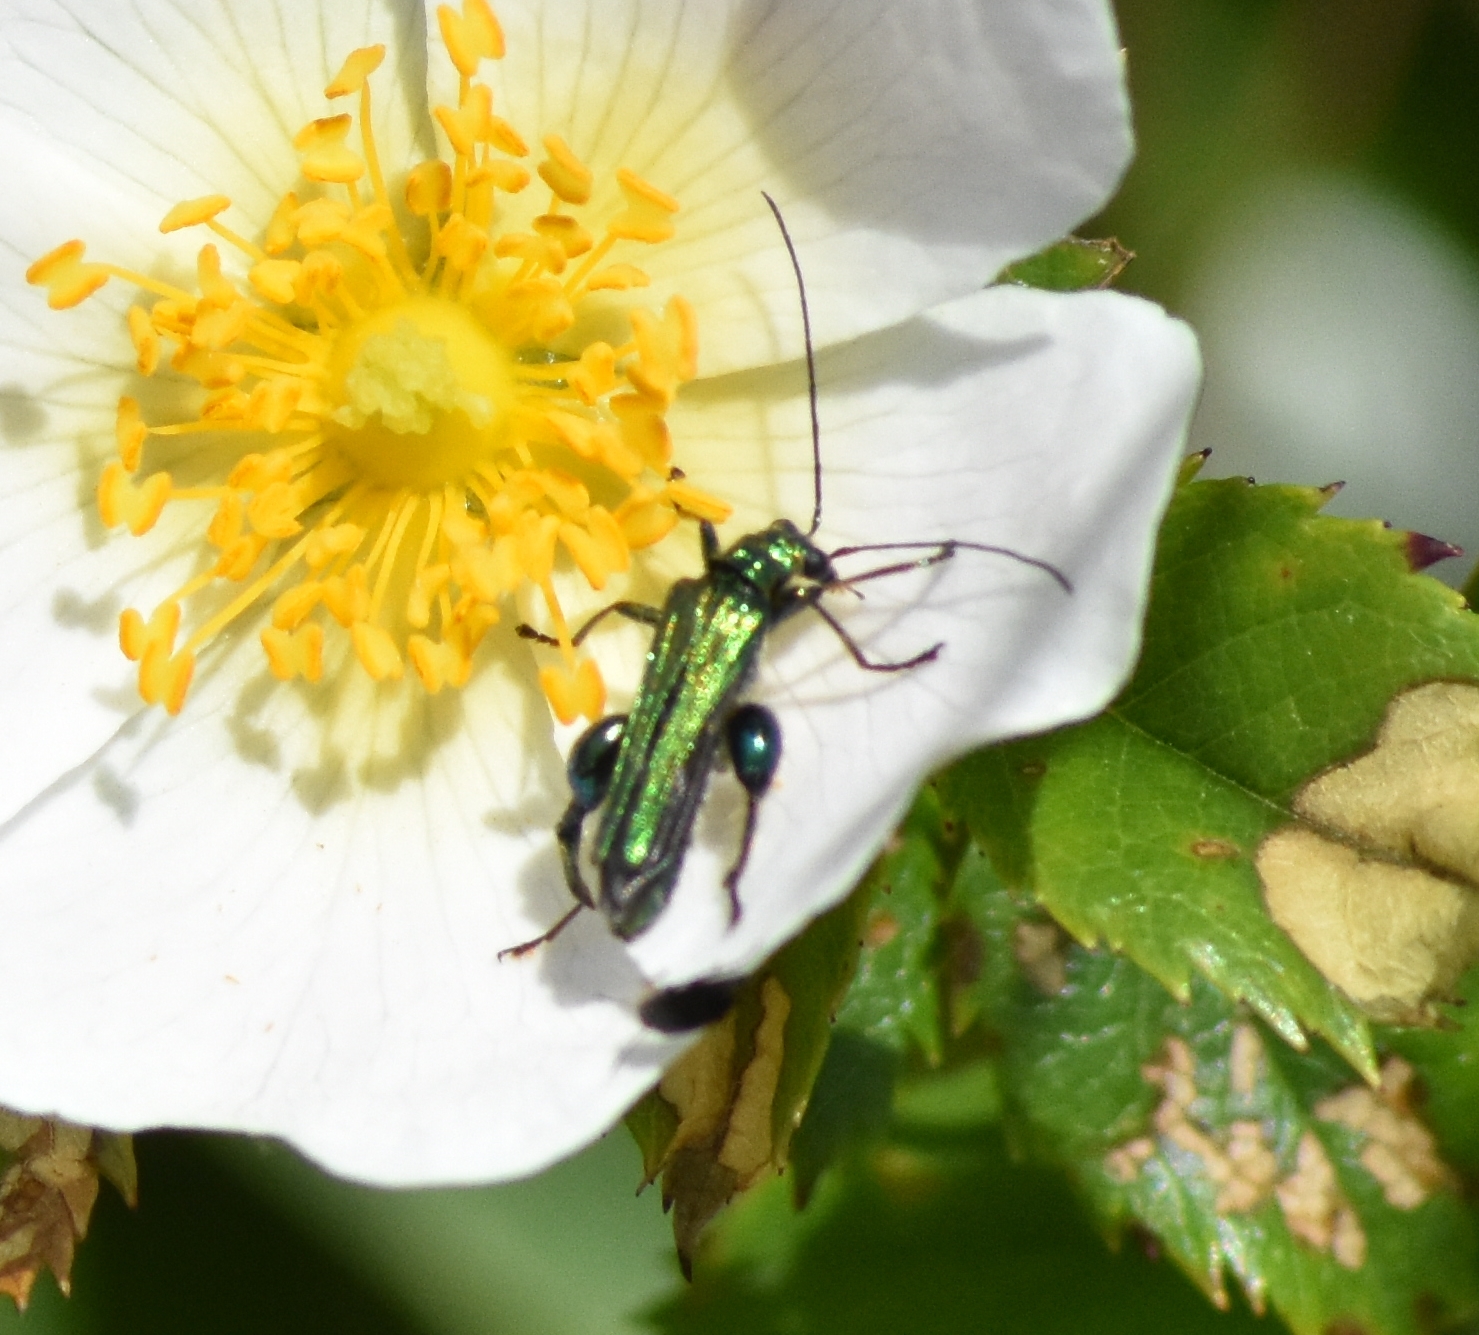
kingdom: Animalia
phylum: Arthropoda
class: Insecta
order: Coleoptera
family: Oedemeridae
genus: Oedemera
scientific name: Oedemera nobilis
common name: Swollen-thighed beetle
